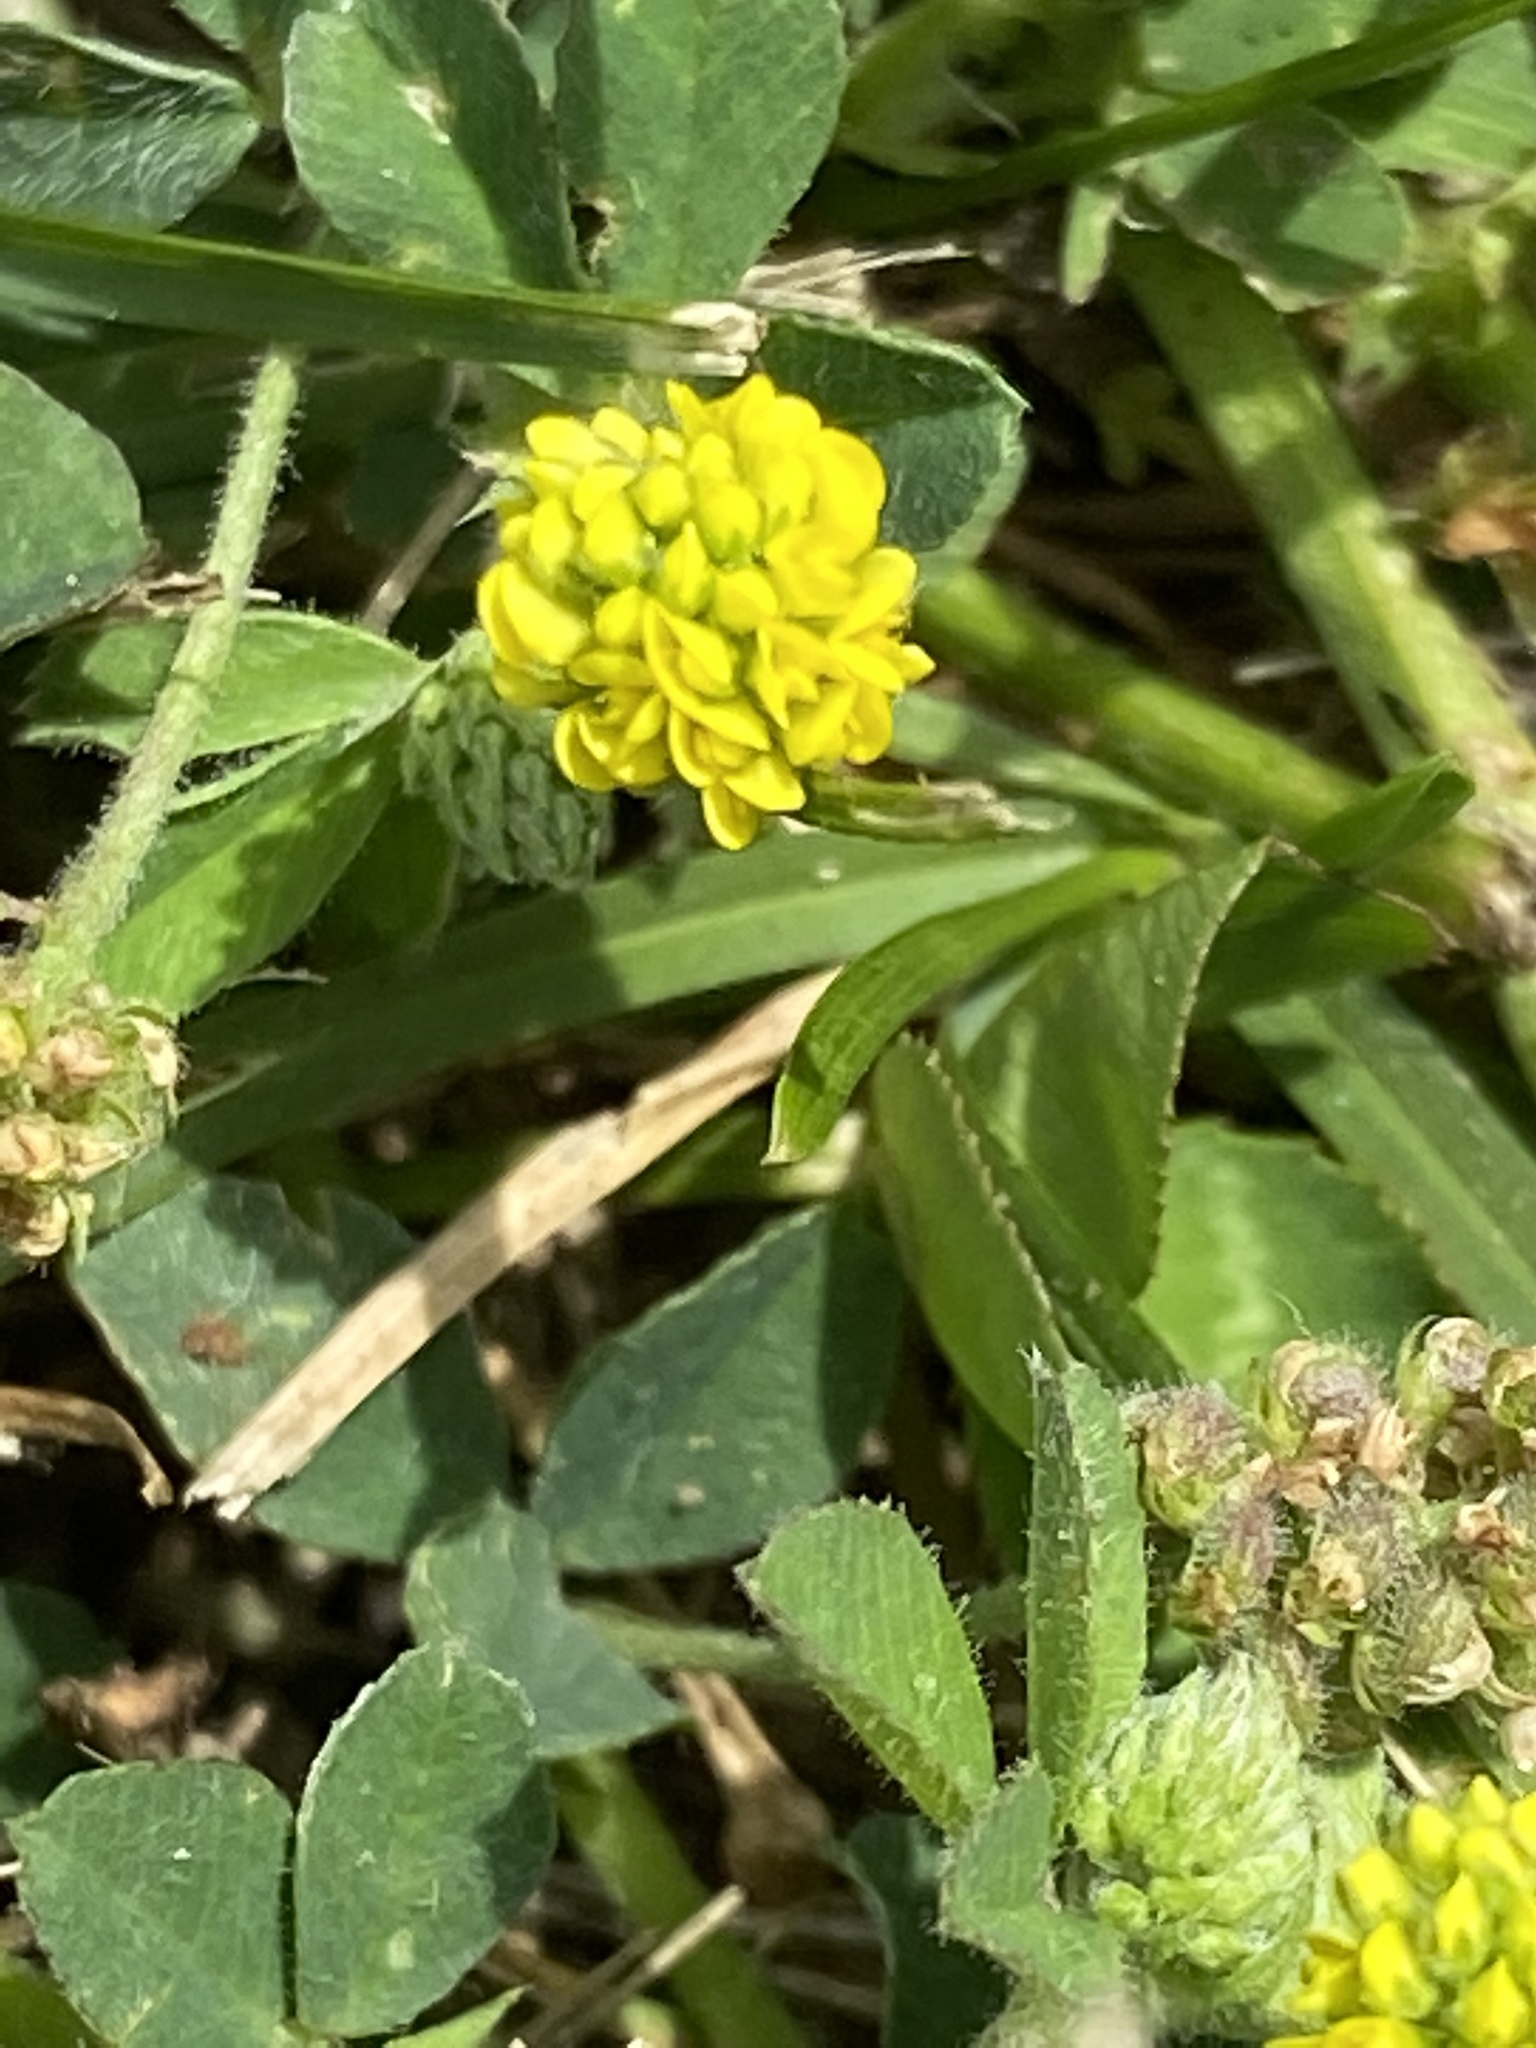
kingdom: Plantae
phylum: Tracheophyta
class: Magnoliopsida
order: Fabales
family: Fabaceae
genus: Medicago
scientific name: Medicago lupulina
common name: Black medick
